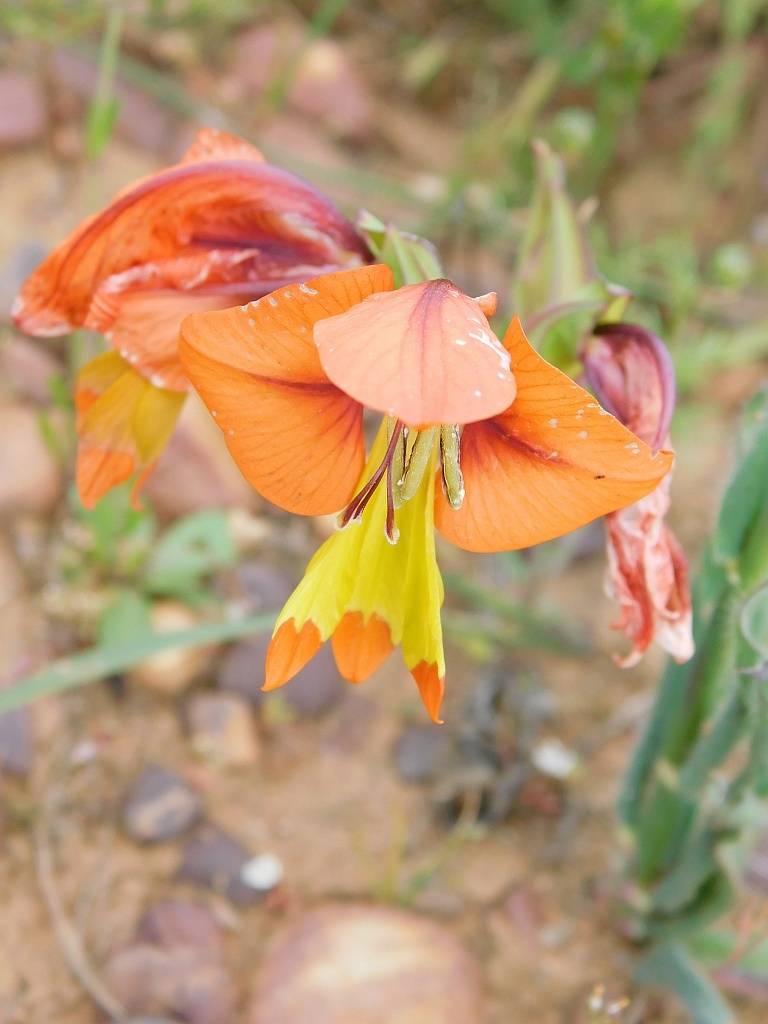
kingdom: Plantae
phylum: Tracheophyta
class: Liliopsida
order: Asparagales
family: Iridaceae
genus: Gladiolus
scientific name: Gladiolus alatus
